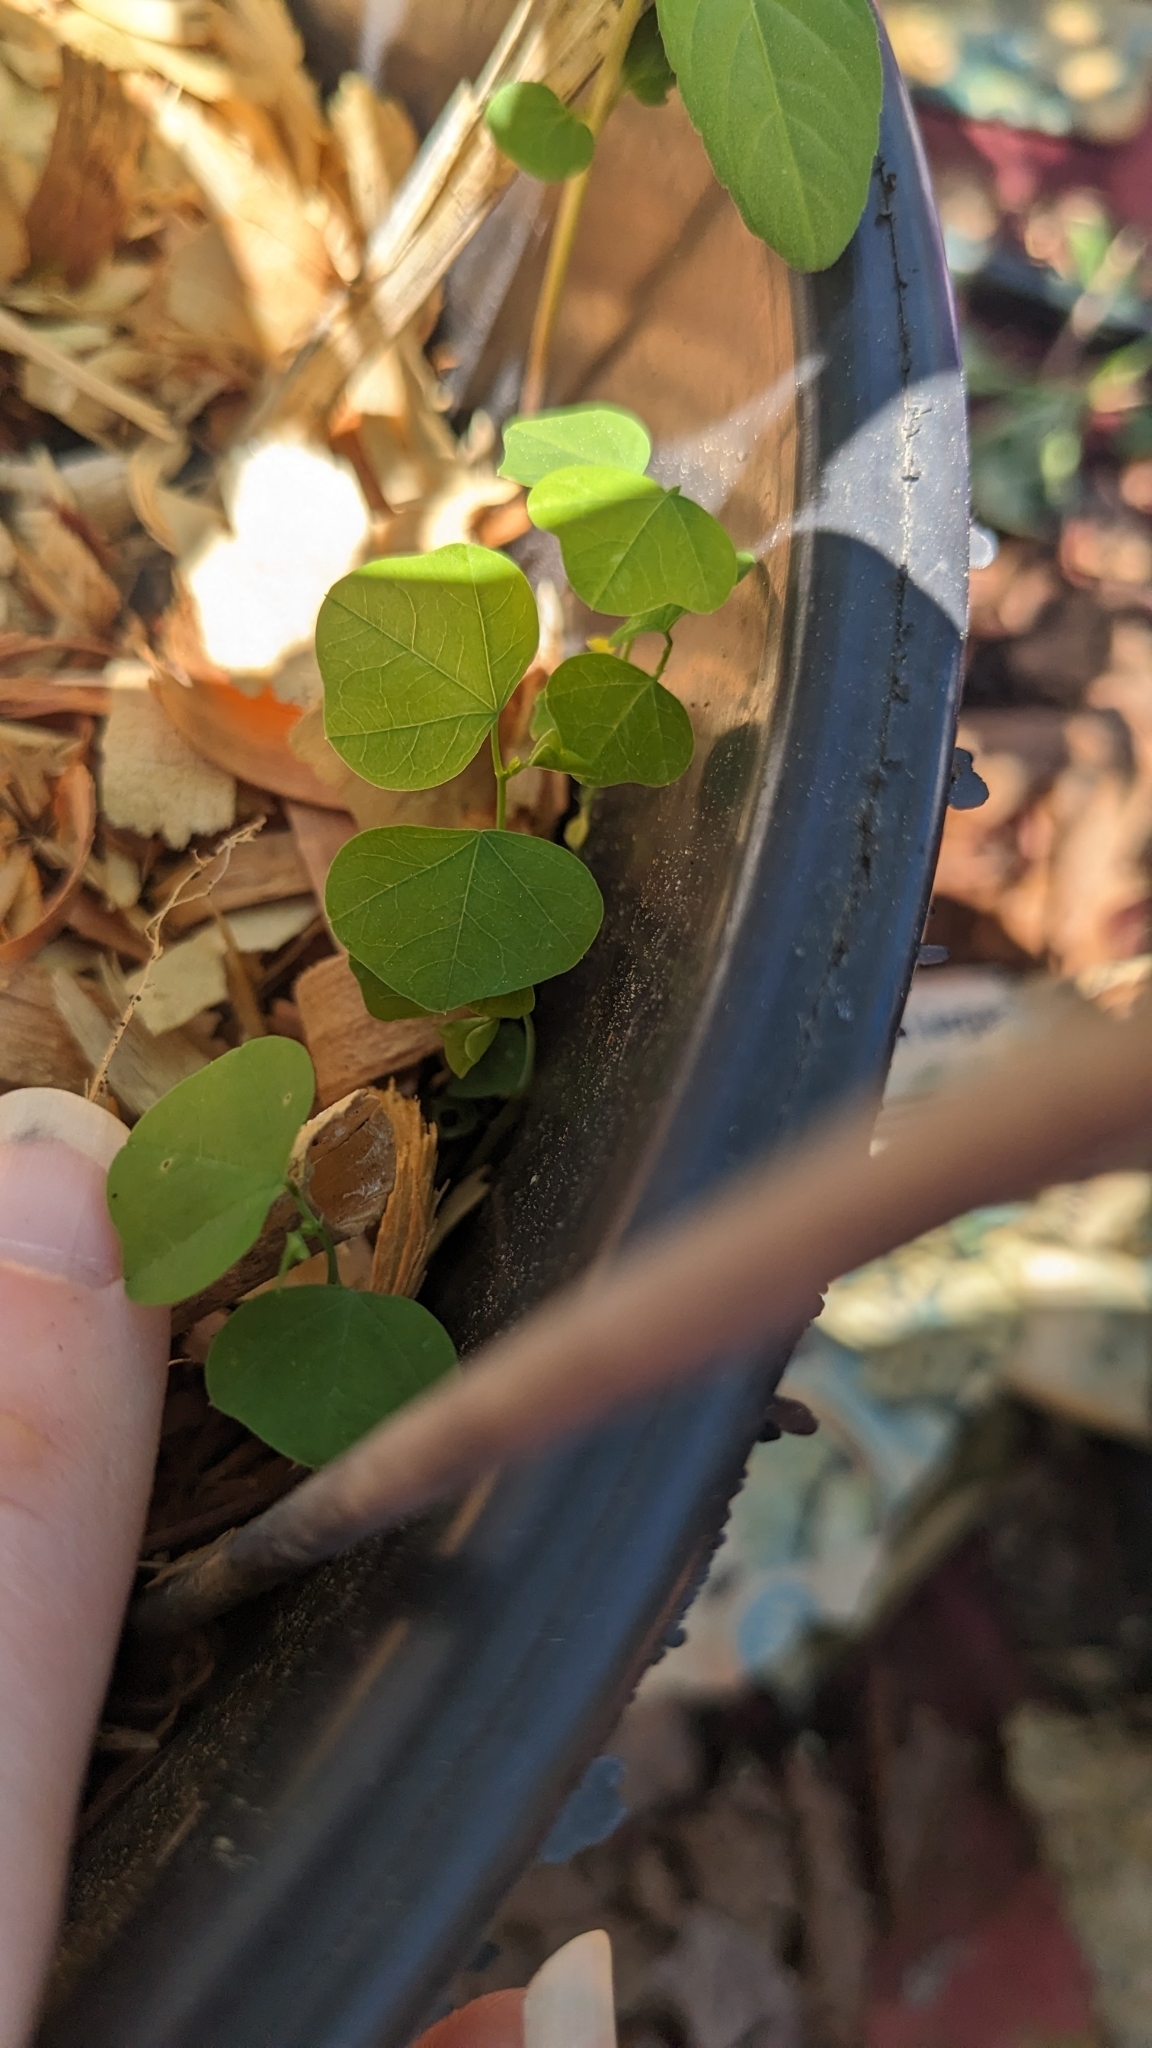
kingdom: Plantae
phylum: Tracheophyta
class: Magnoliopsida
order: Malpighiales
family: Passifloraceae
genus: Passiflora
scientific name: Passiflora lutea
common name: Yellow passionflower
